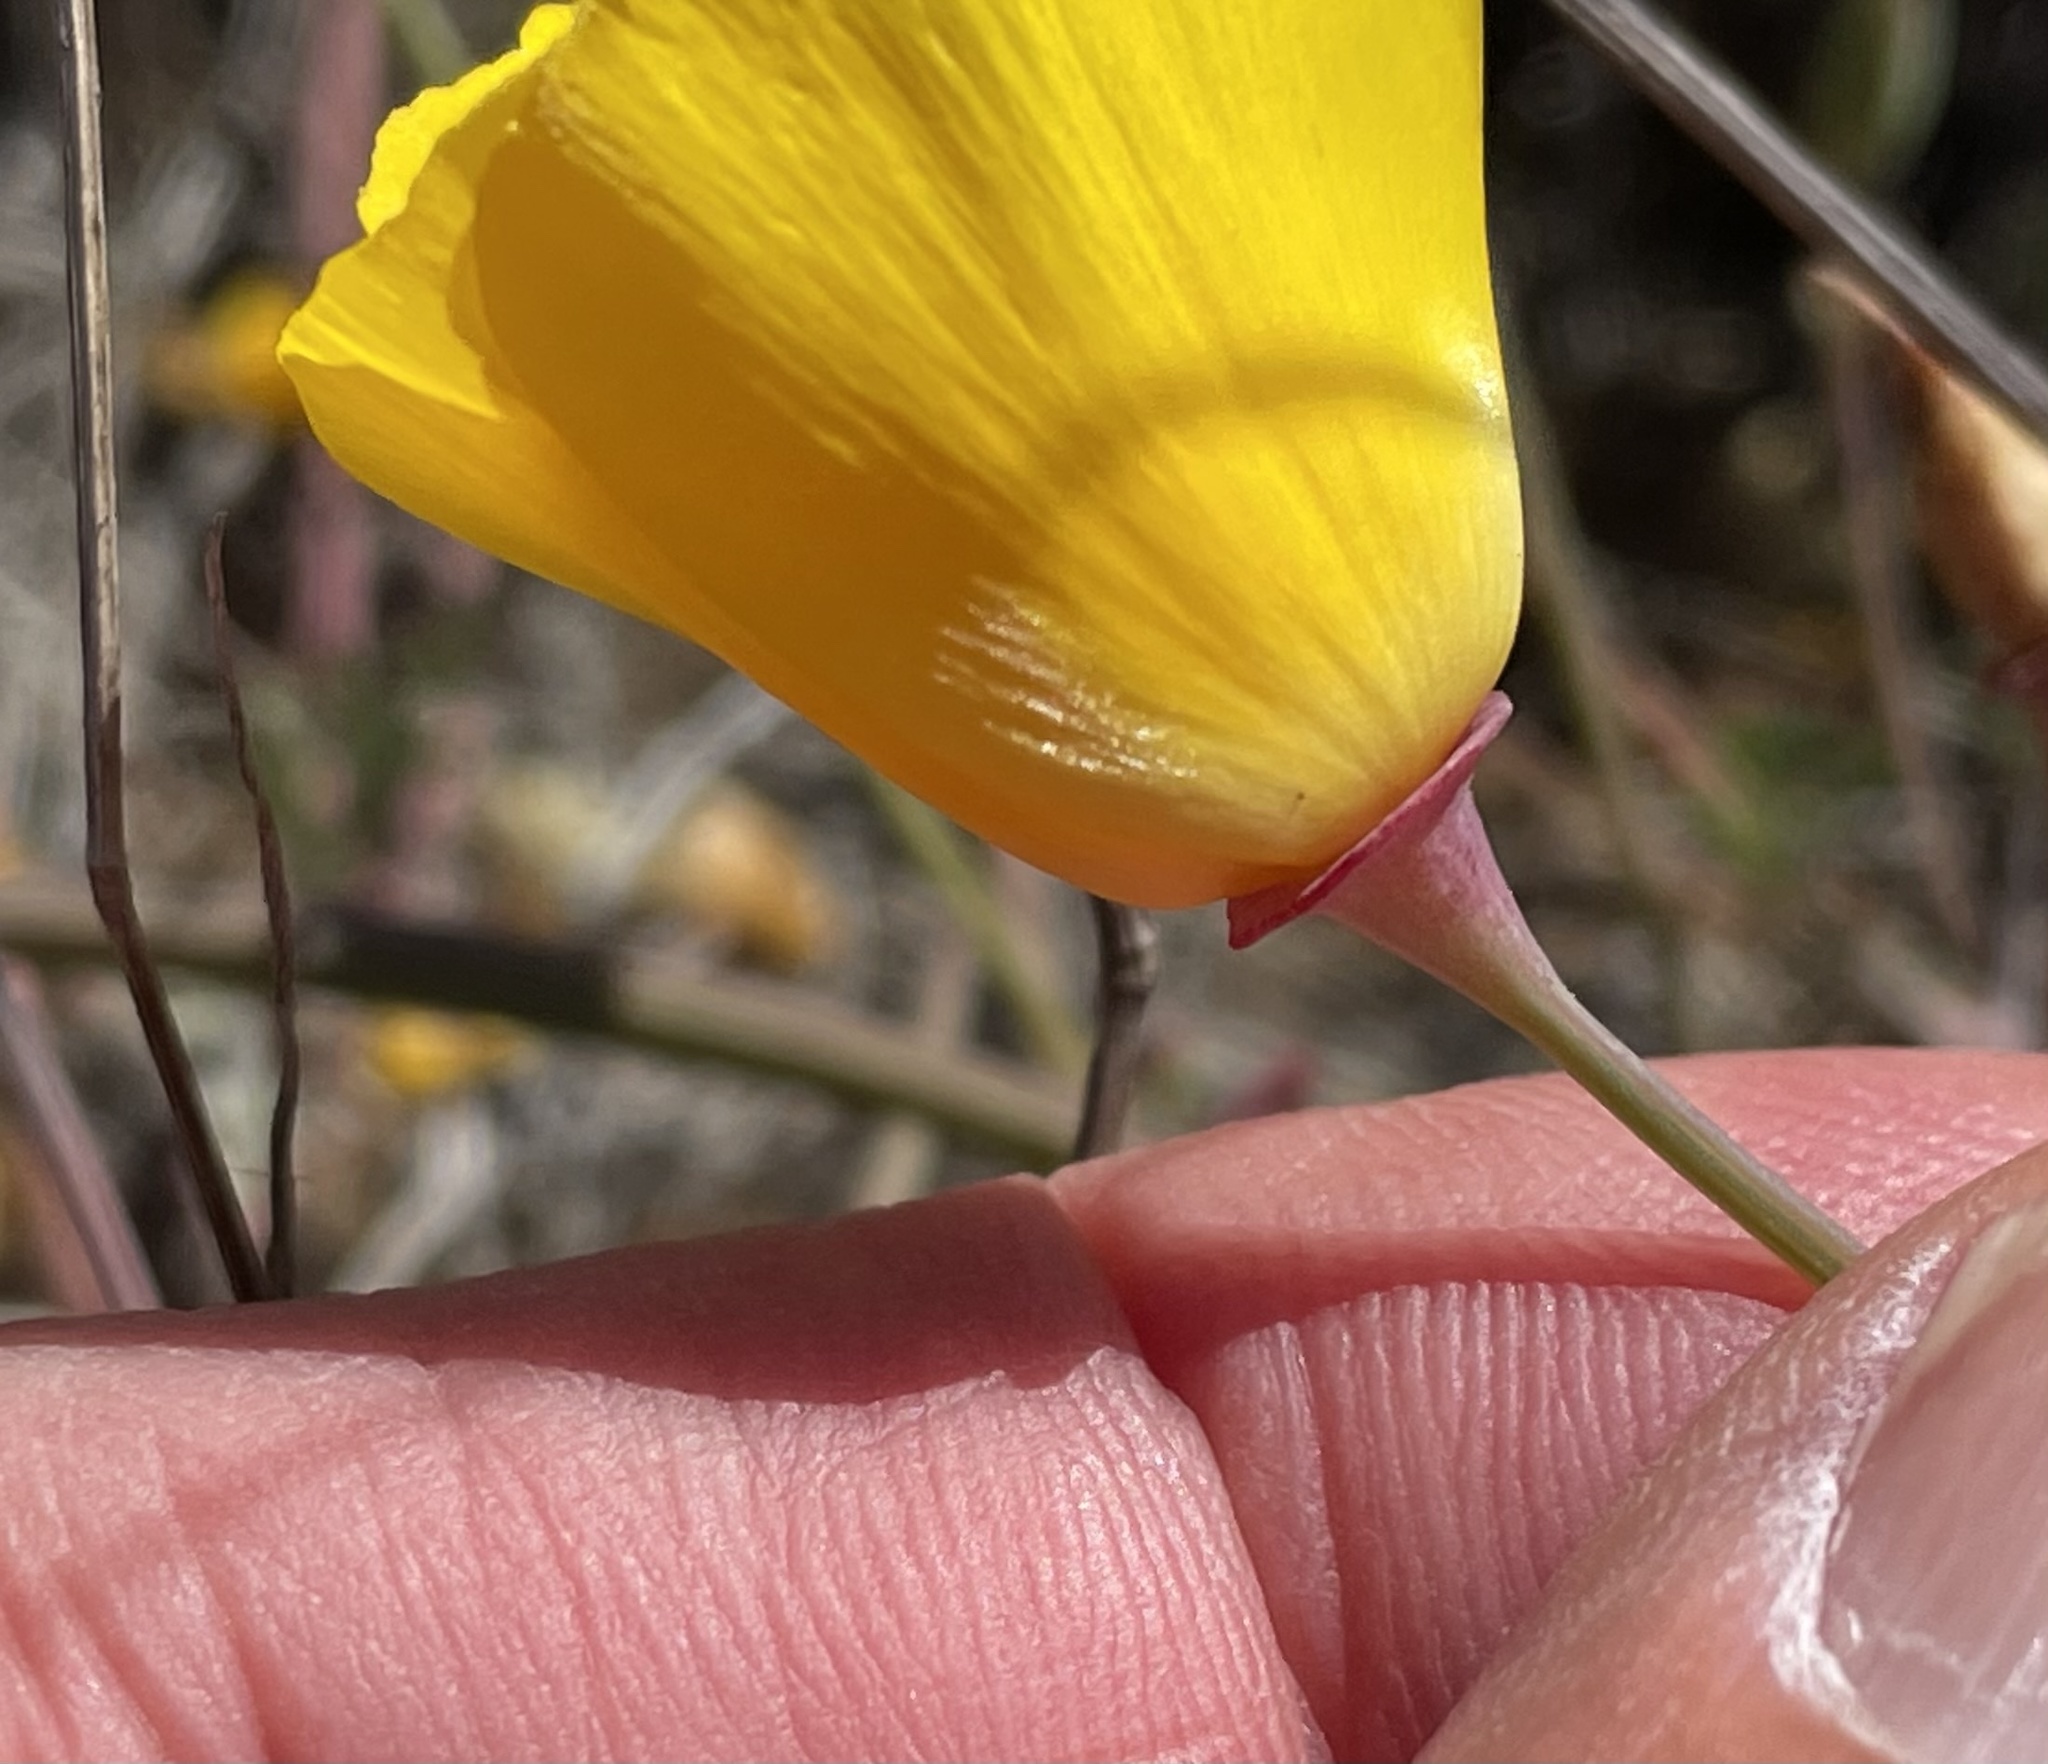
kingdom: Plantae
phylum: Tracheophyta
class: Magnoliopsida
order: Ranunculales
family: Papaveraceae
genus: Eschscholzia
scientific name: Eschscholzia californica
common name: California poppy
